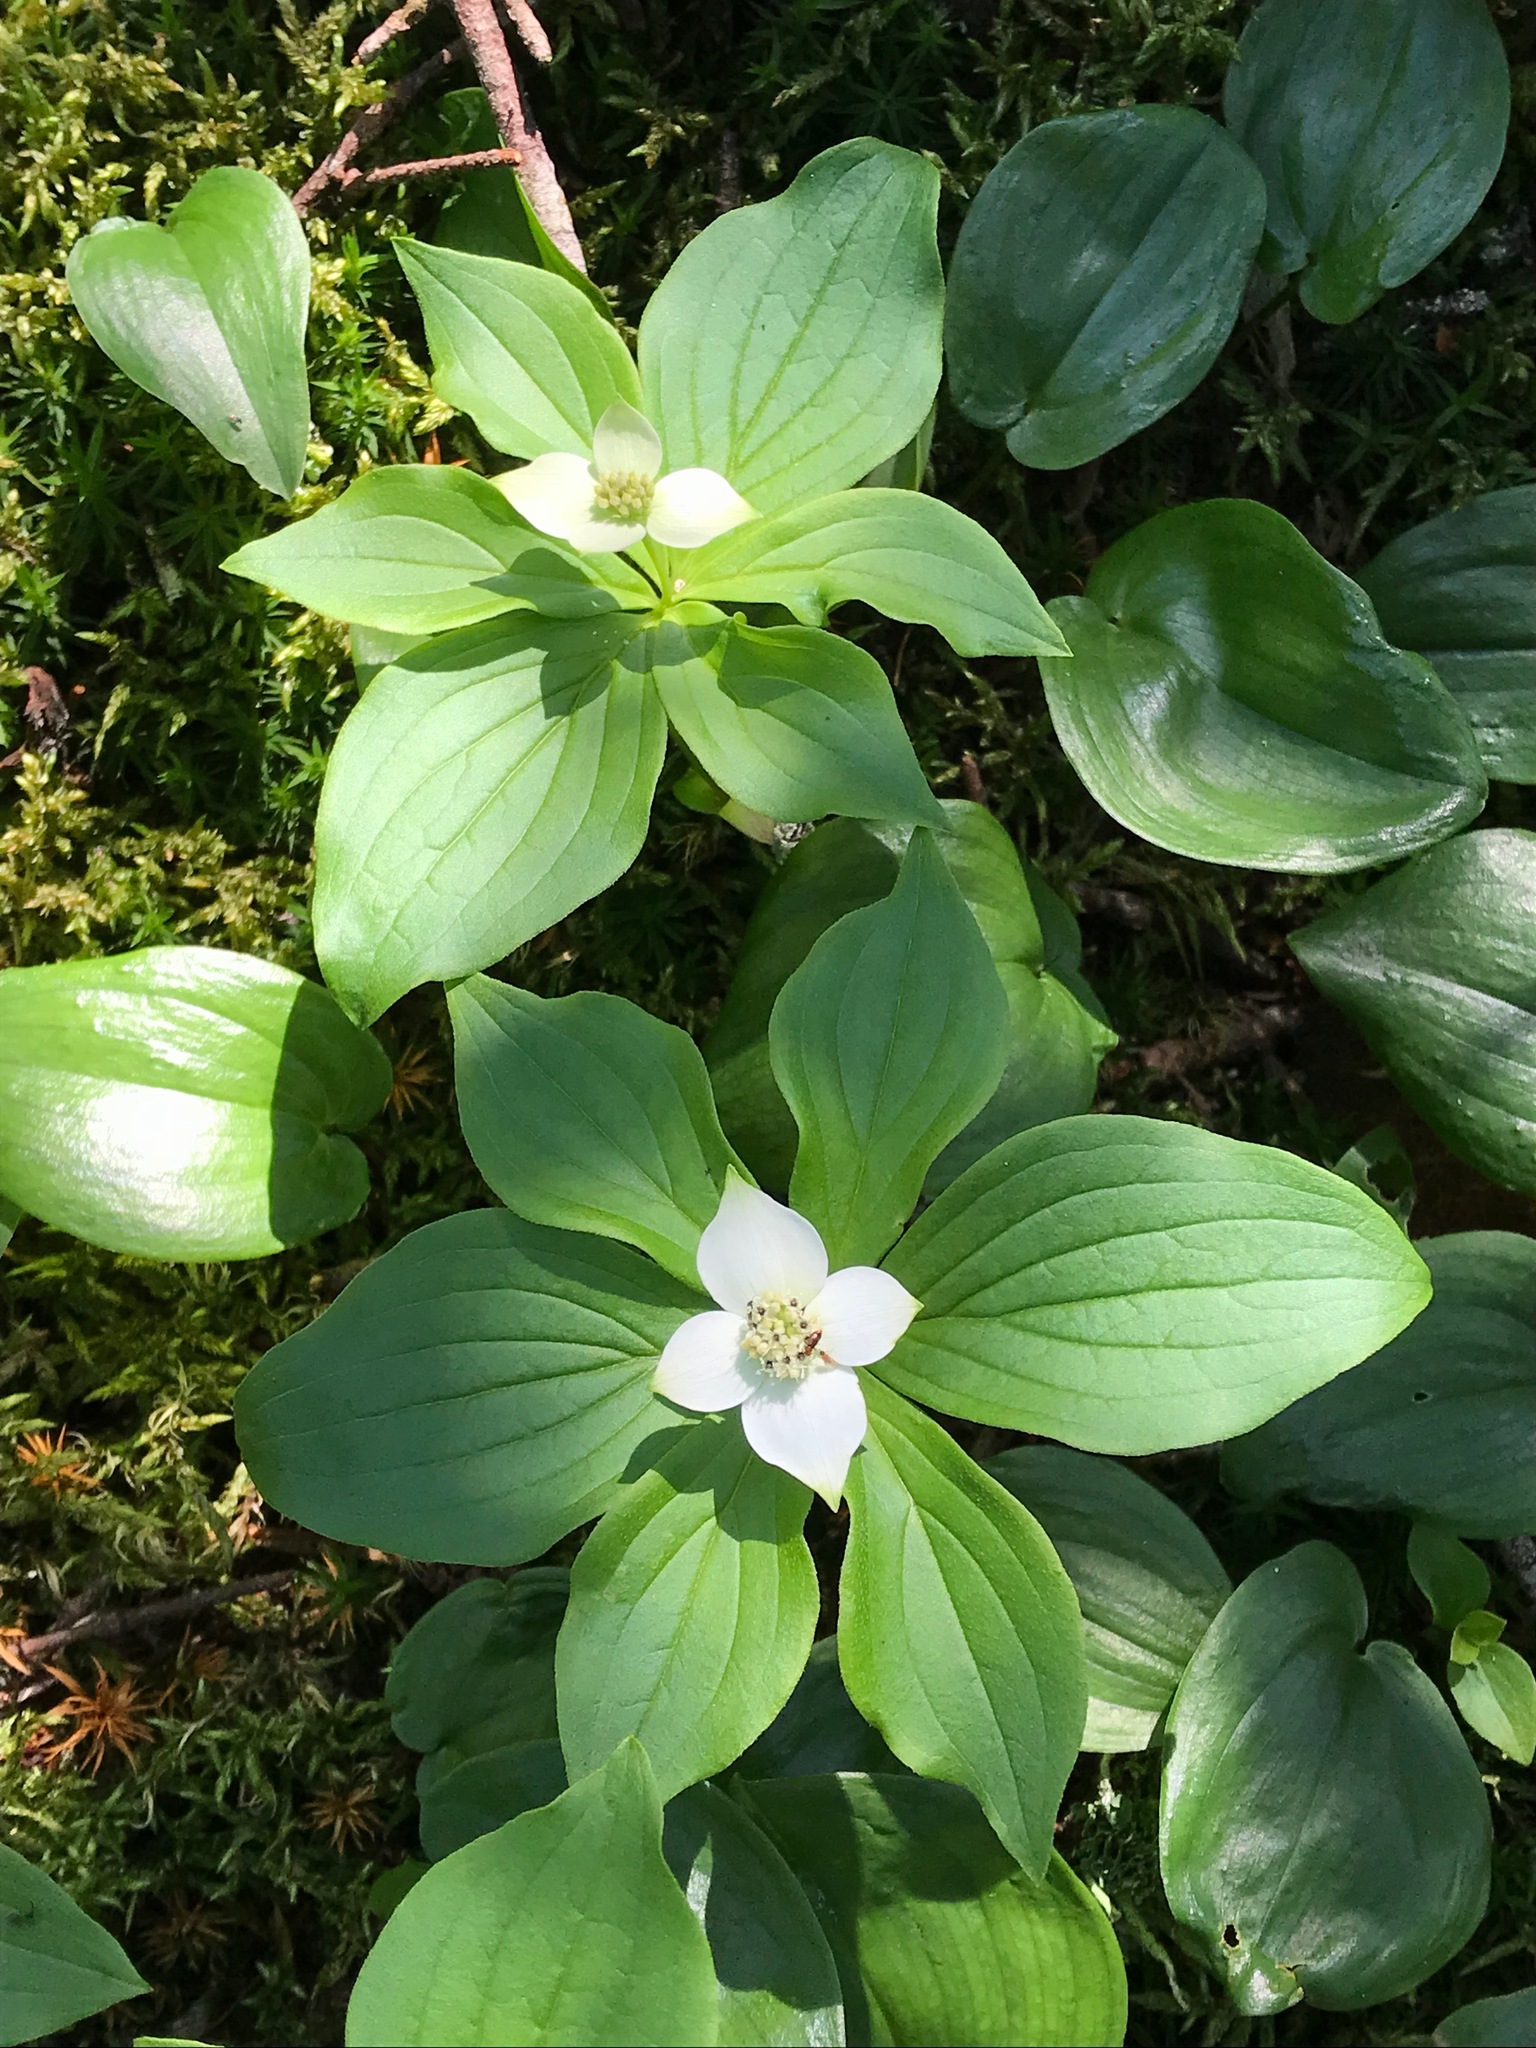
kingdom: Plantae
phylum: Tracheophyta
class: Magnoliopsida
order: Cornales
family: Cornaceae
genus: Cornus
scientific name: Cornus canadensis
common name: Creeping dogwood
